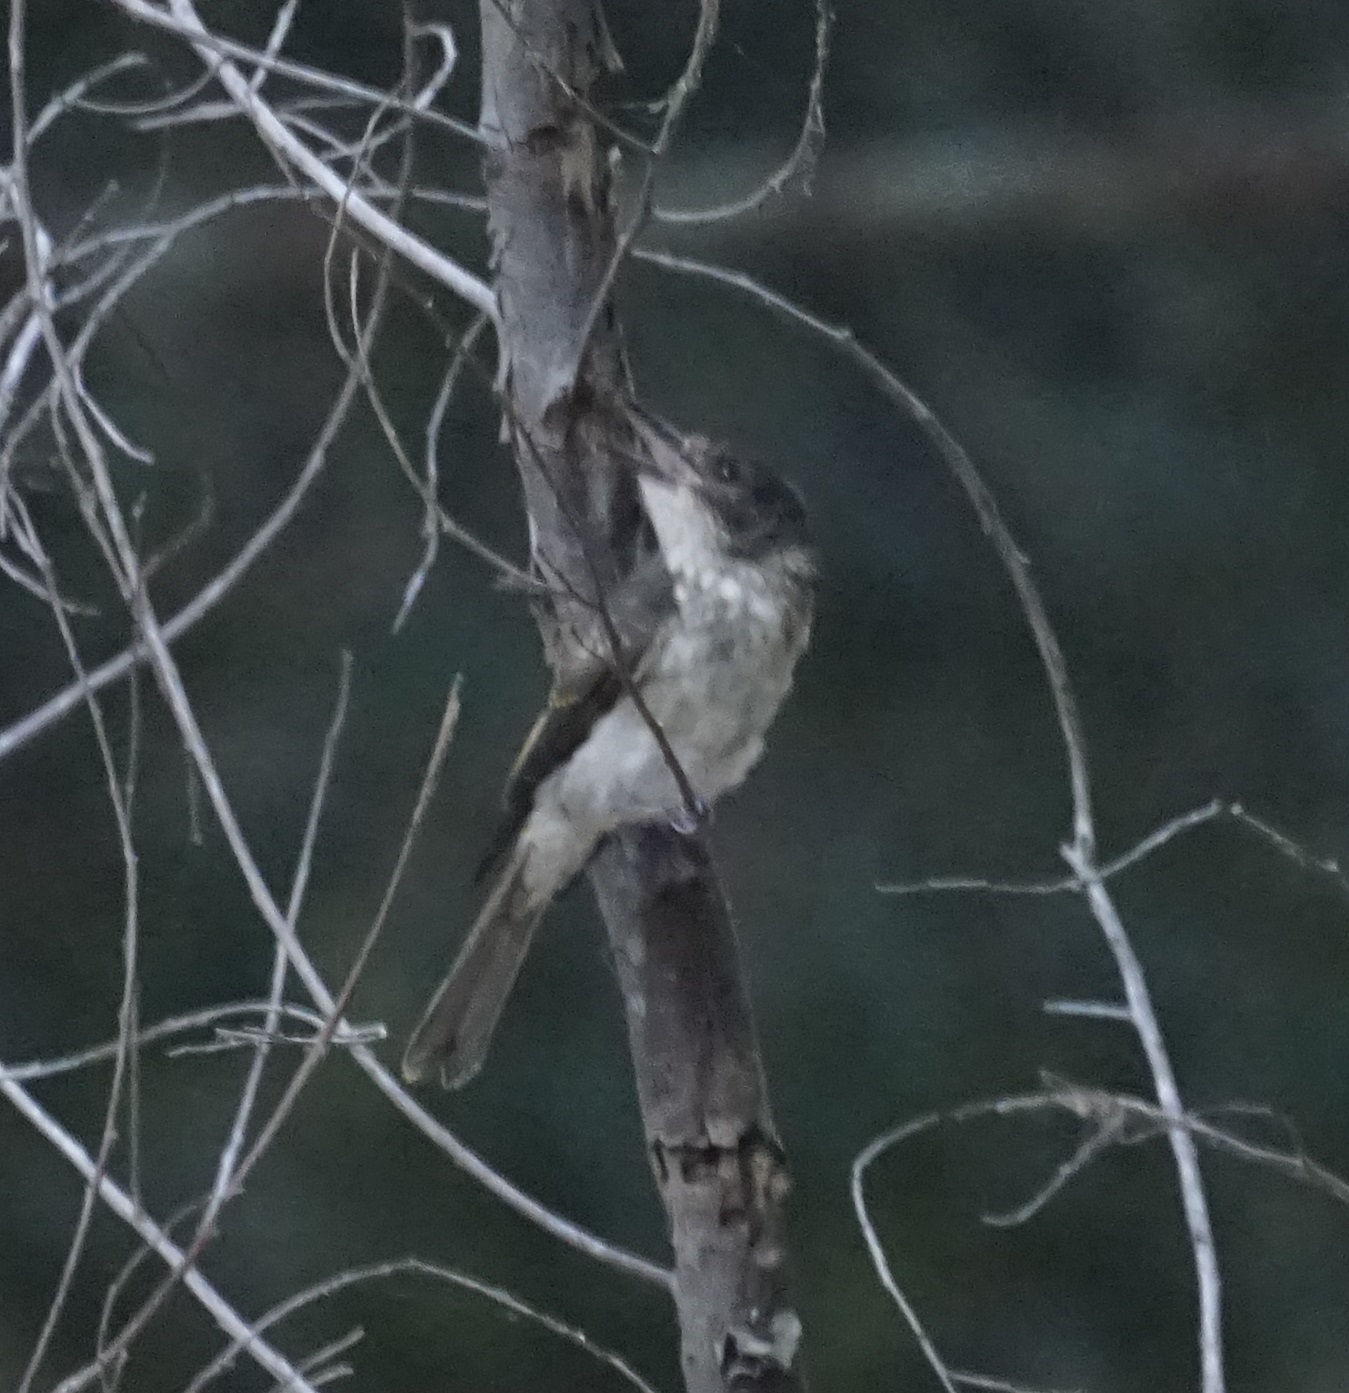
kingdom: Animalia
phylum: Chordata
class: Aves
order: Passeriformes
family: Cracticidae
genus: Cracticus
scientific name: Cracticus torquatus
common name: Grey butcherbird
